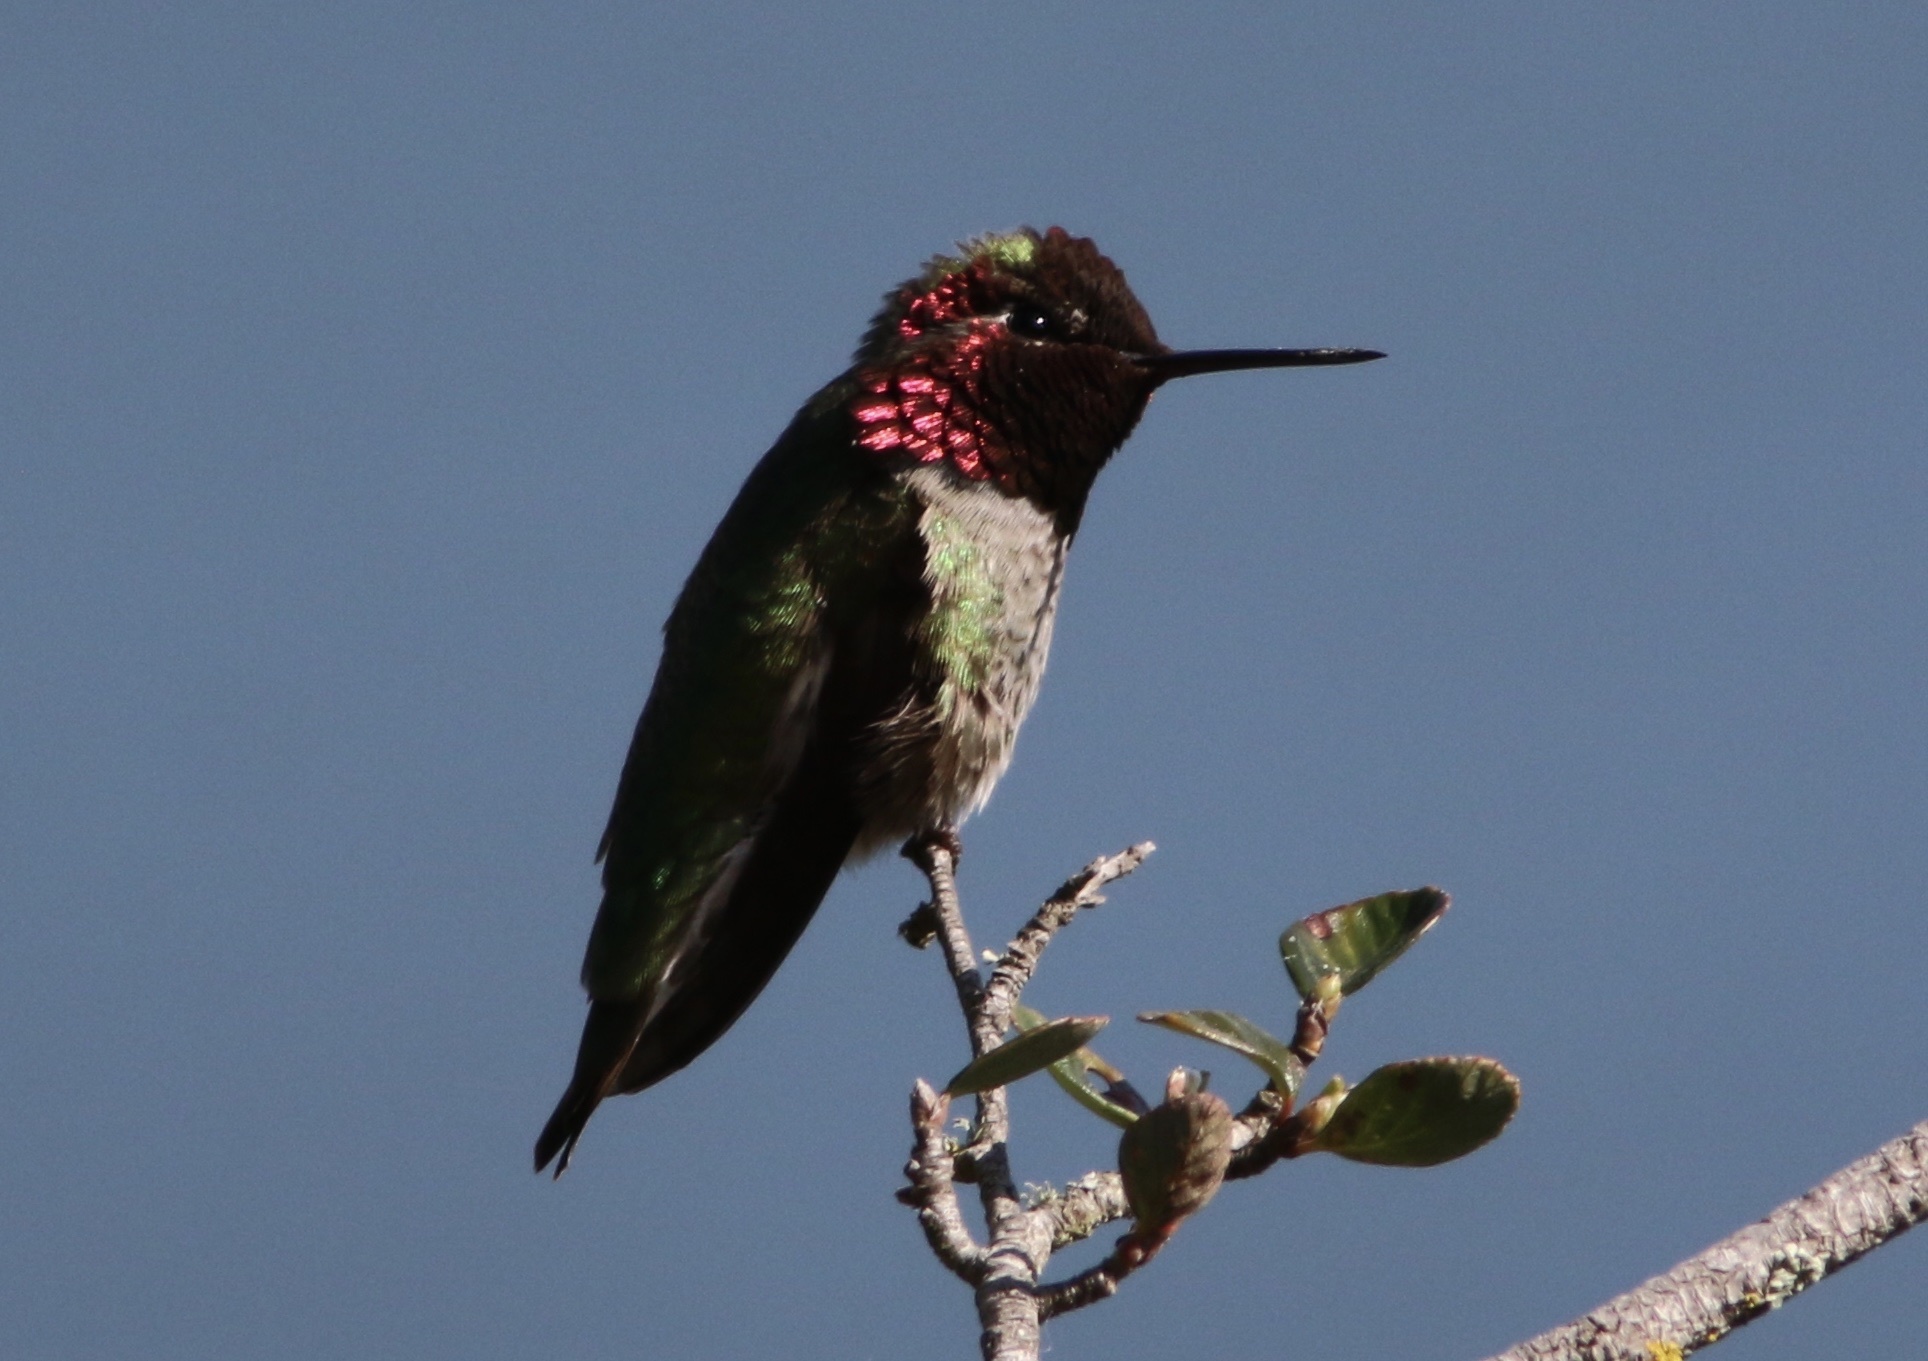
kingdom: Animalia
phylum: Chordata
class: Aves
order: Apodiformes
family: Trochilidae
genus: Calypte
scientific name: Calypte anna
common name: Anna's hummingbird
